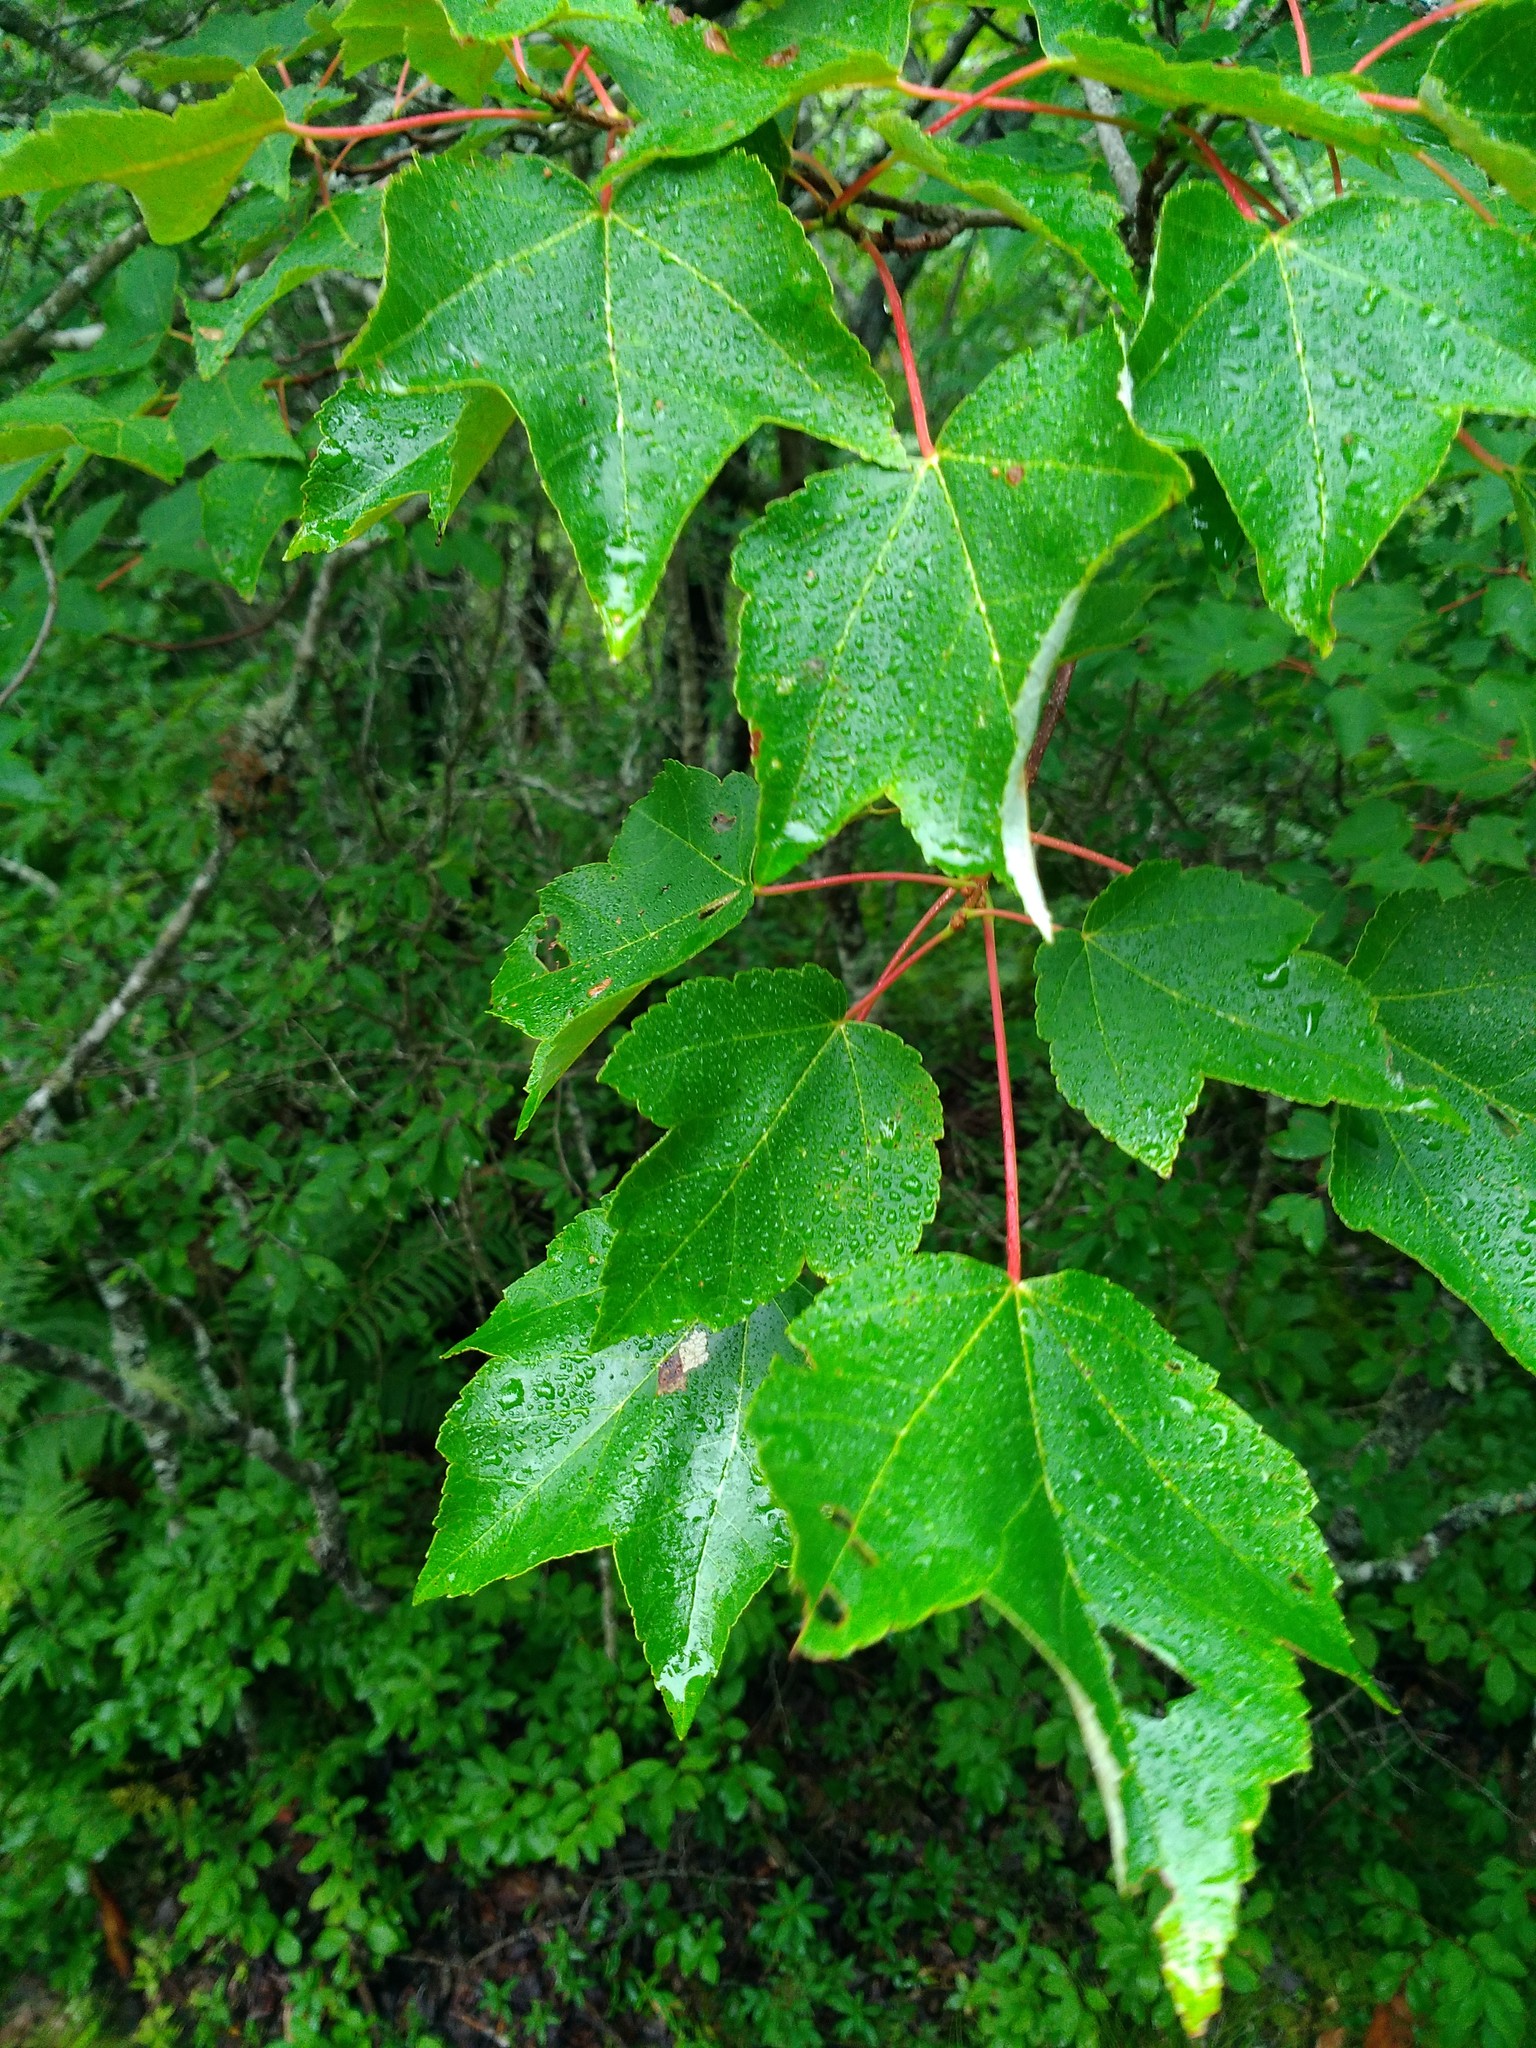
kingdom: Plantae
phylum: Tracheophyta
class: Magnoliopsida
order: Sapindales
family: Sapindaceae
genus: Acer
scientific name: Acer rubrum
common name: Red maple
